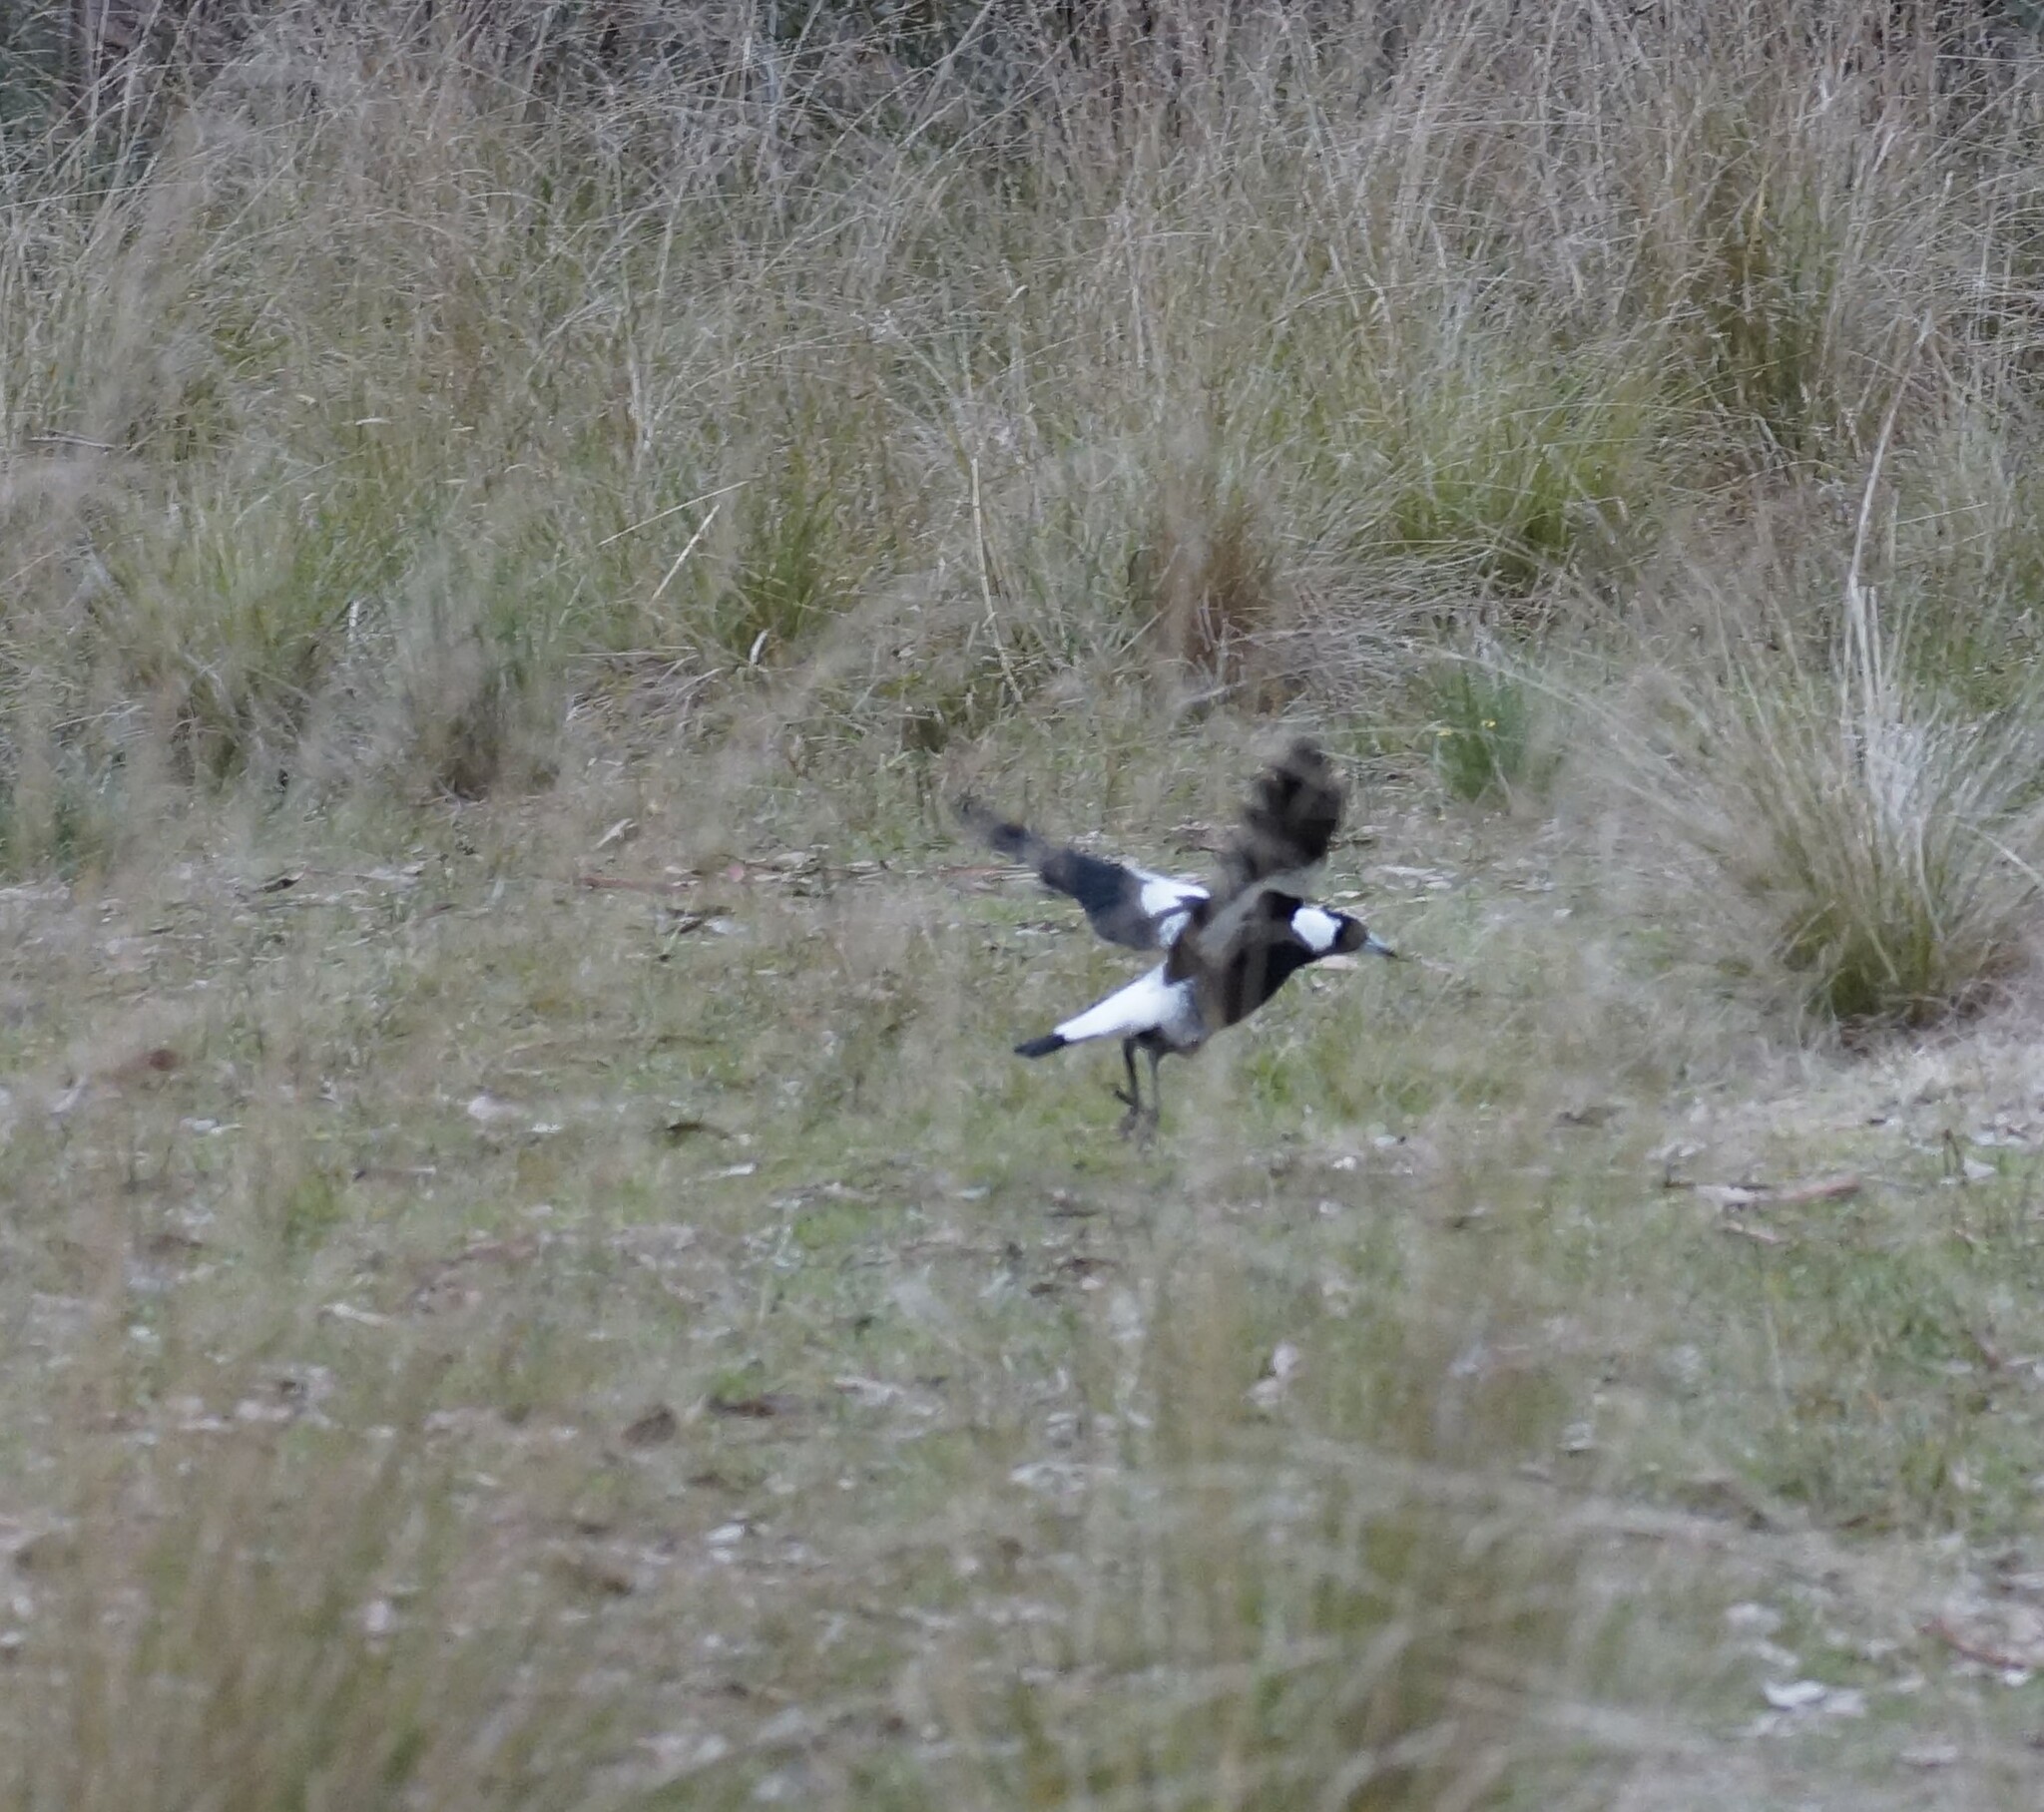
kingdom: Animalia
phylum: Chordata
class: Aves
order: Passeriformes
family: Cracticidae
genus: Gymnorhina
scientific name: Gymnorhina tibicen
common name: Australian magpie
